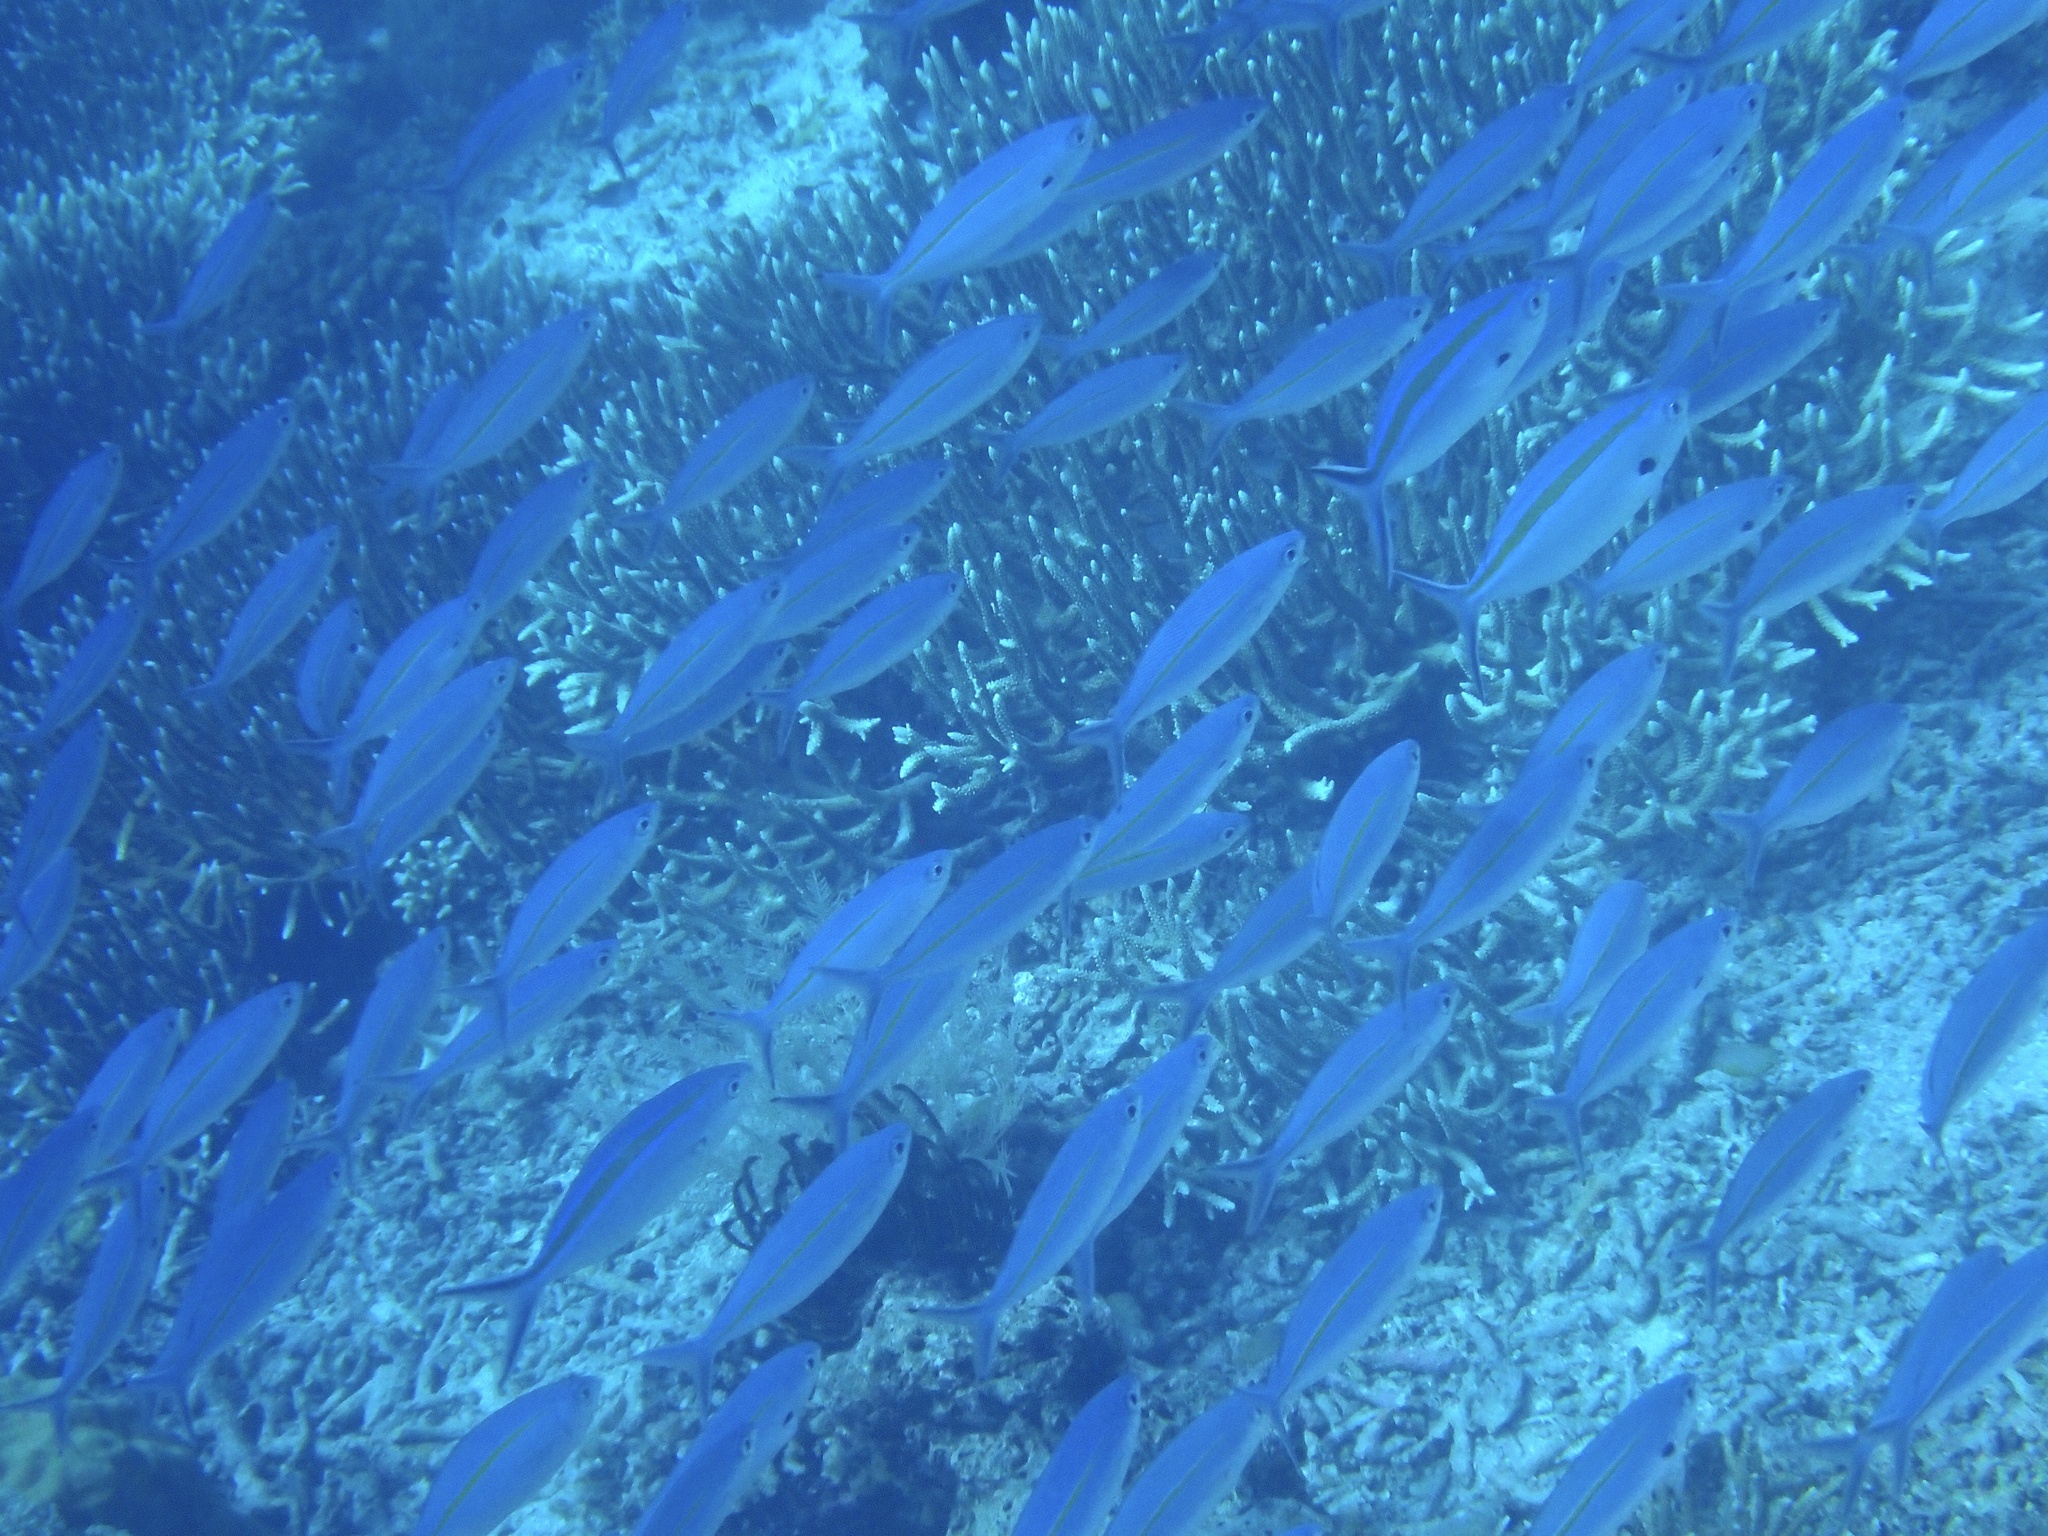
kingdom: Animalia
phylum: Chordata
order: Perciformes
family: Caesionidae
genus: Pterocaesio
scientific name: Pterocaesio tessellata
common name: One-stripe fusilier
